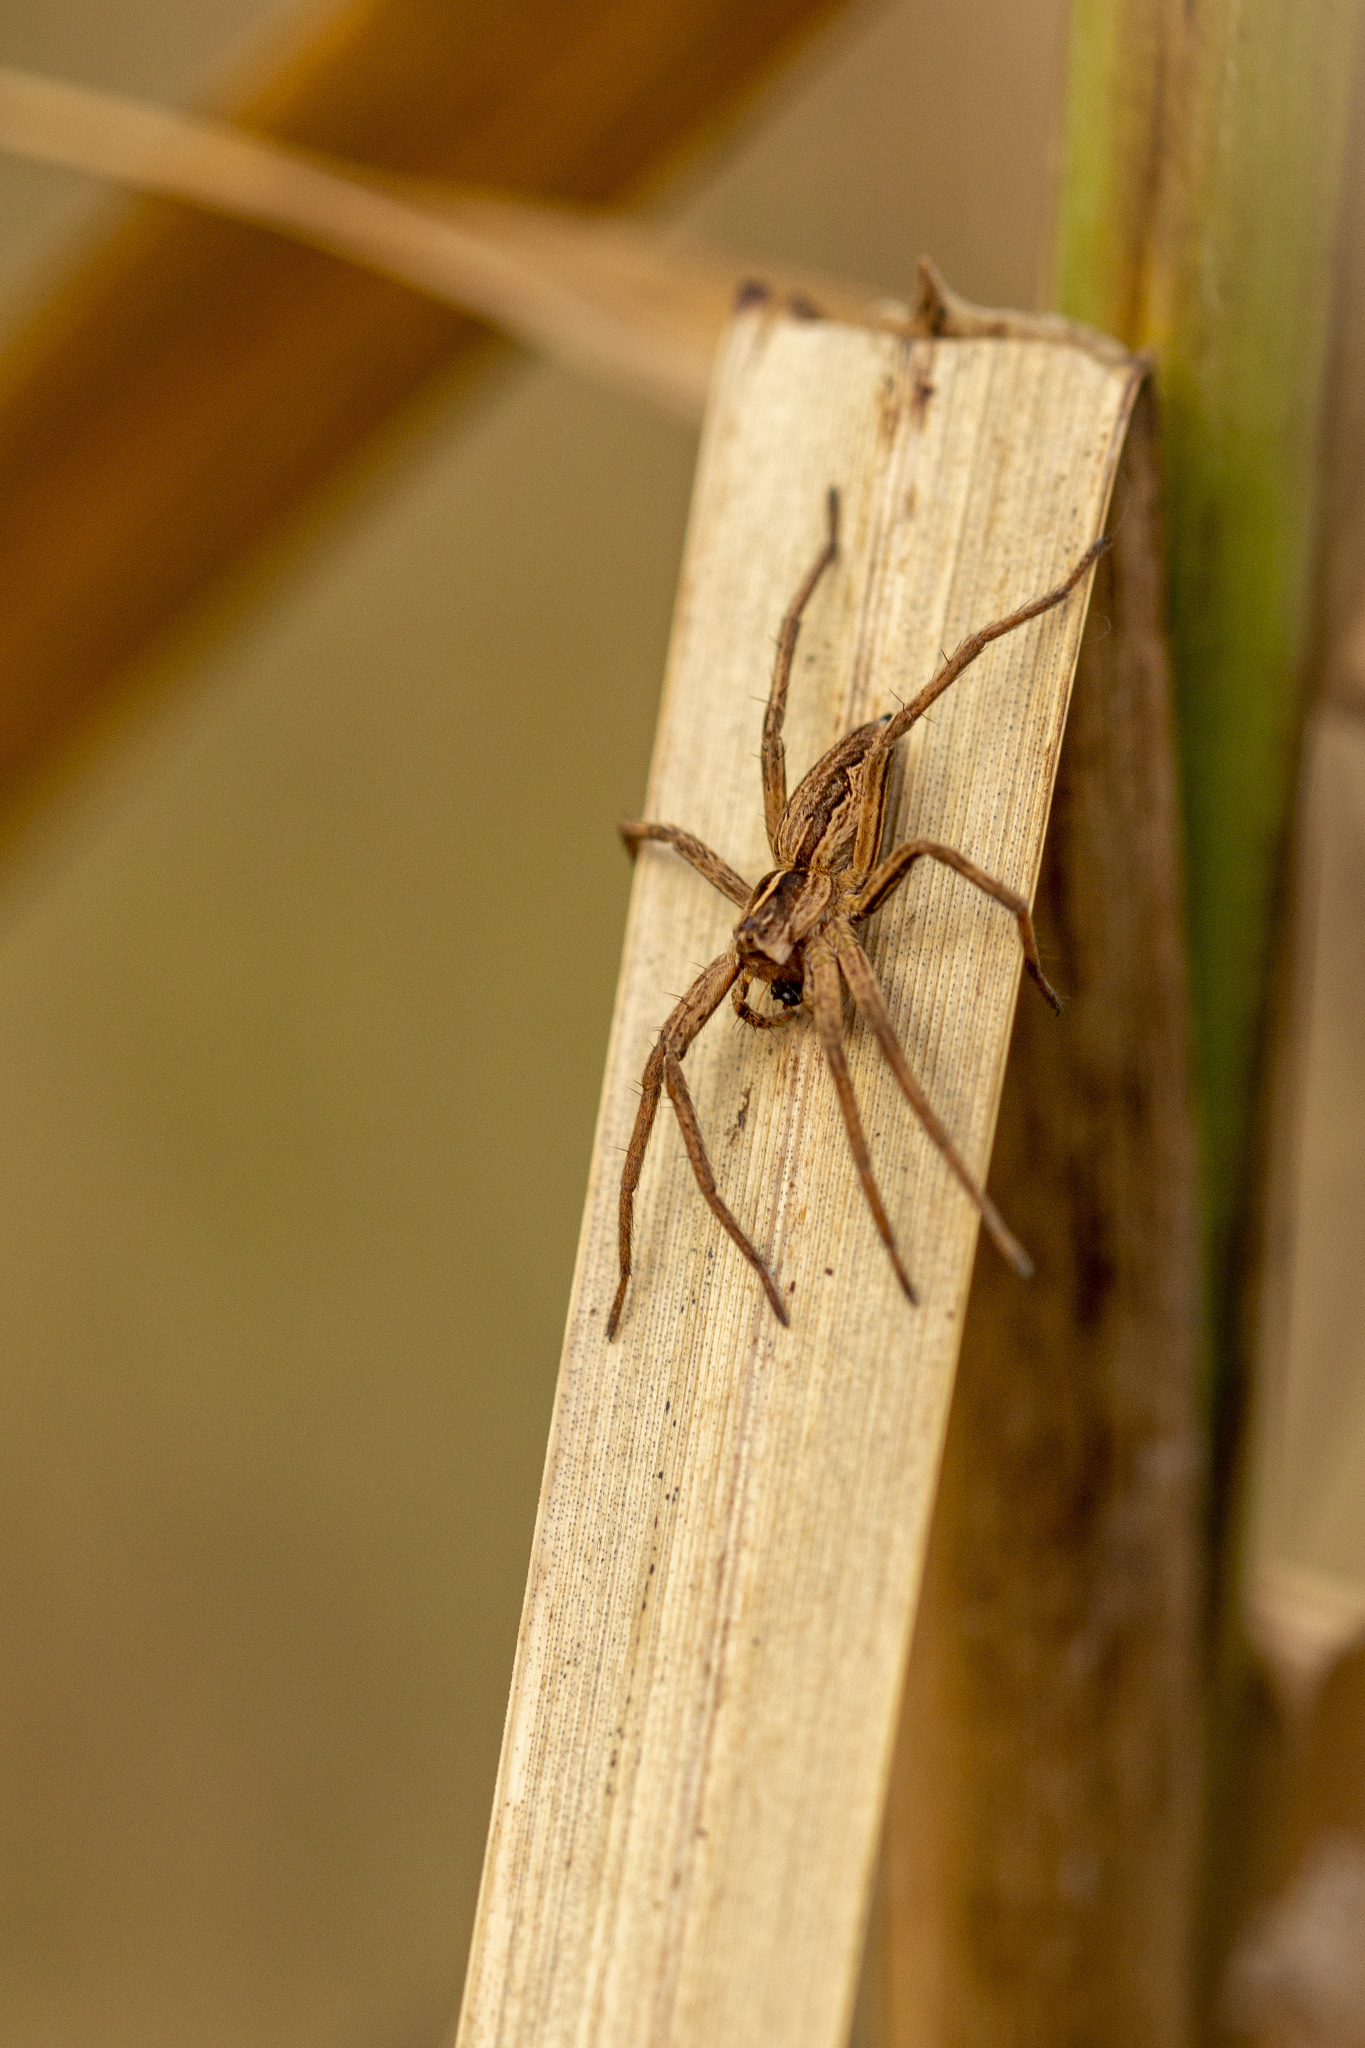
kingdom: Animalia
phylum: Arthropoda
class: Arachnida
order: Araneae
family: Pisauridae
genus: Pisaura
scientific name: Pisaura mirabilis
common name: Tent spider
